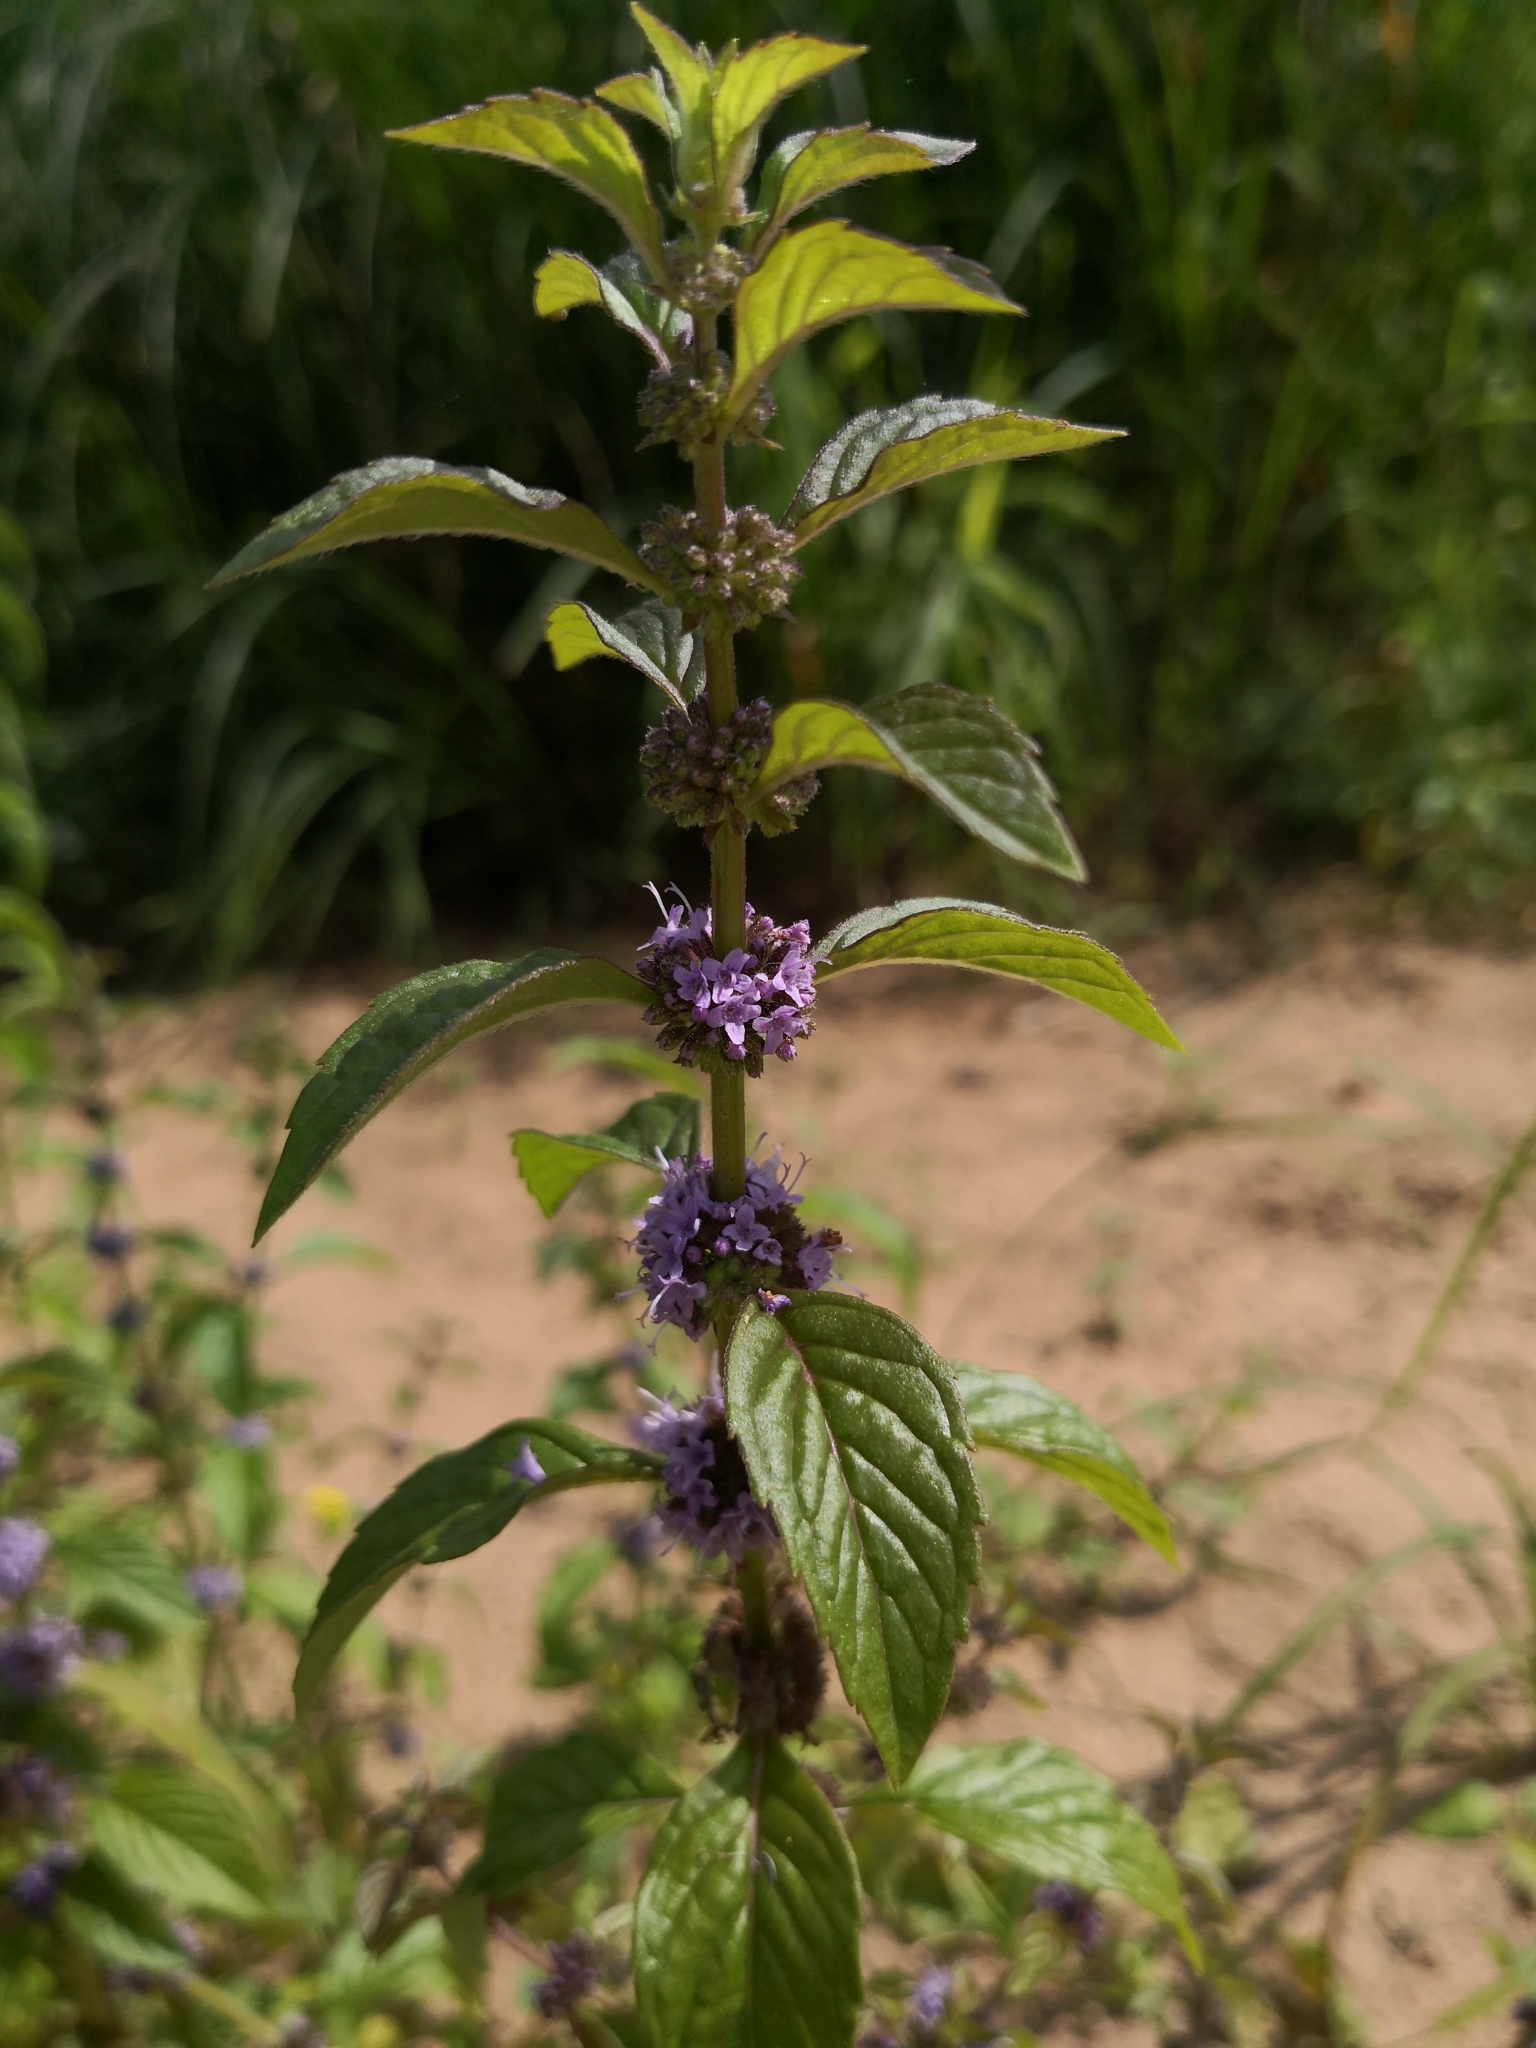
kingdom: Plantae
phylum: Tracheophyta
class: Magnoliopsida
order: Lamiales
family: Lamiaceae
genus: Mentha
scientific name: Mentha arvensis
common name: Corn mint
